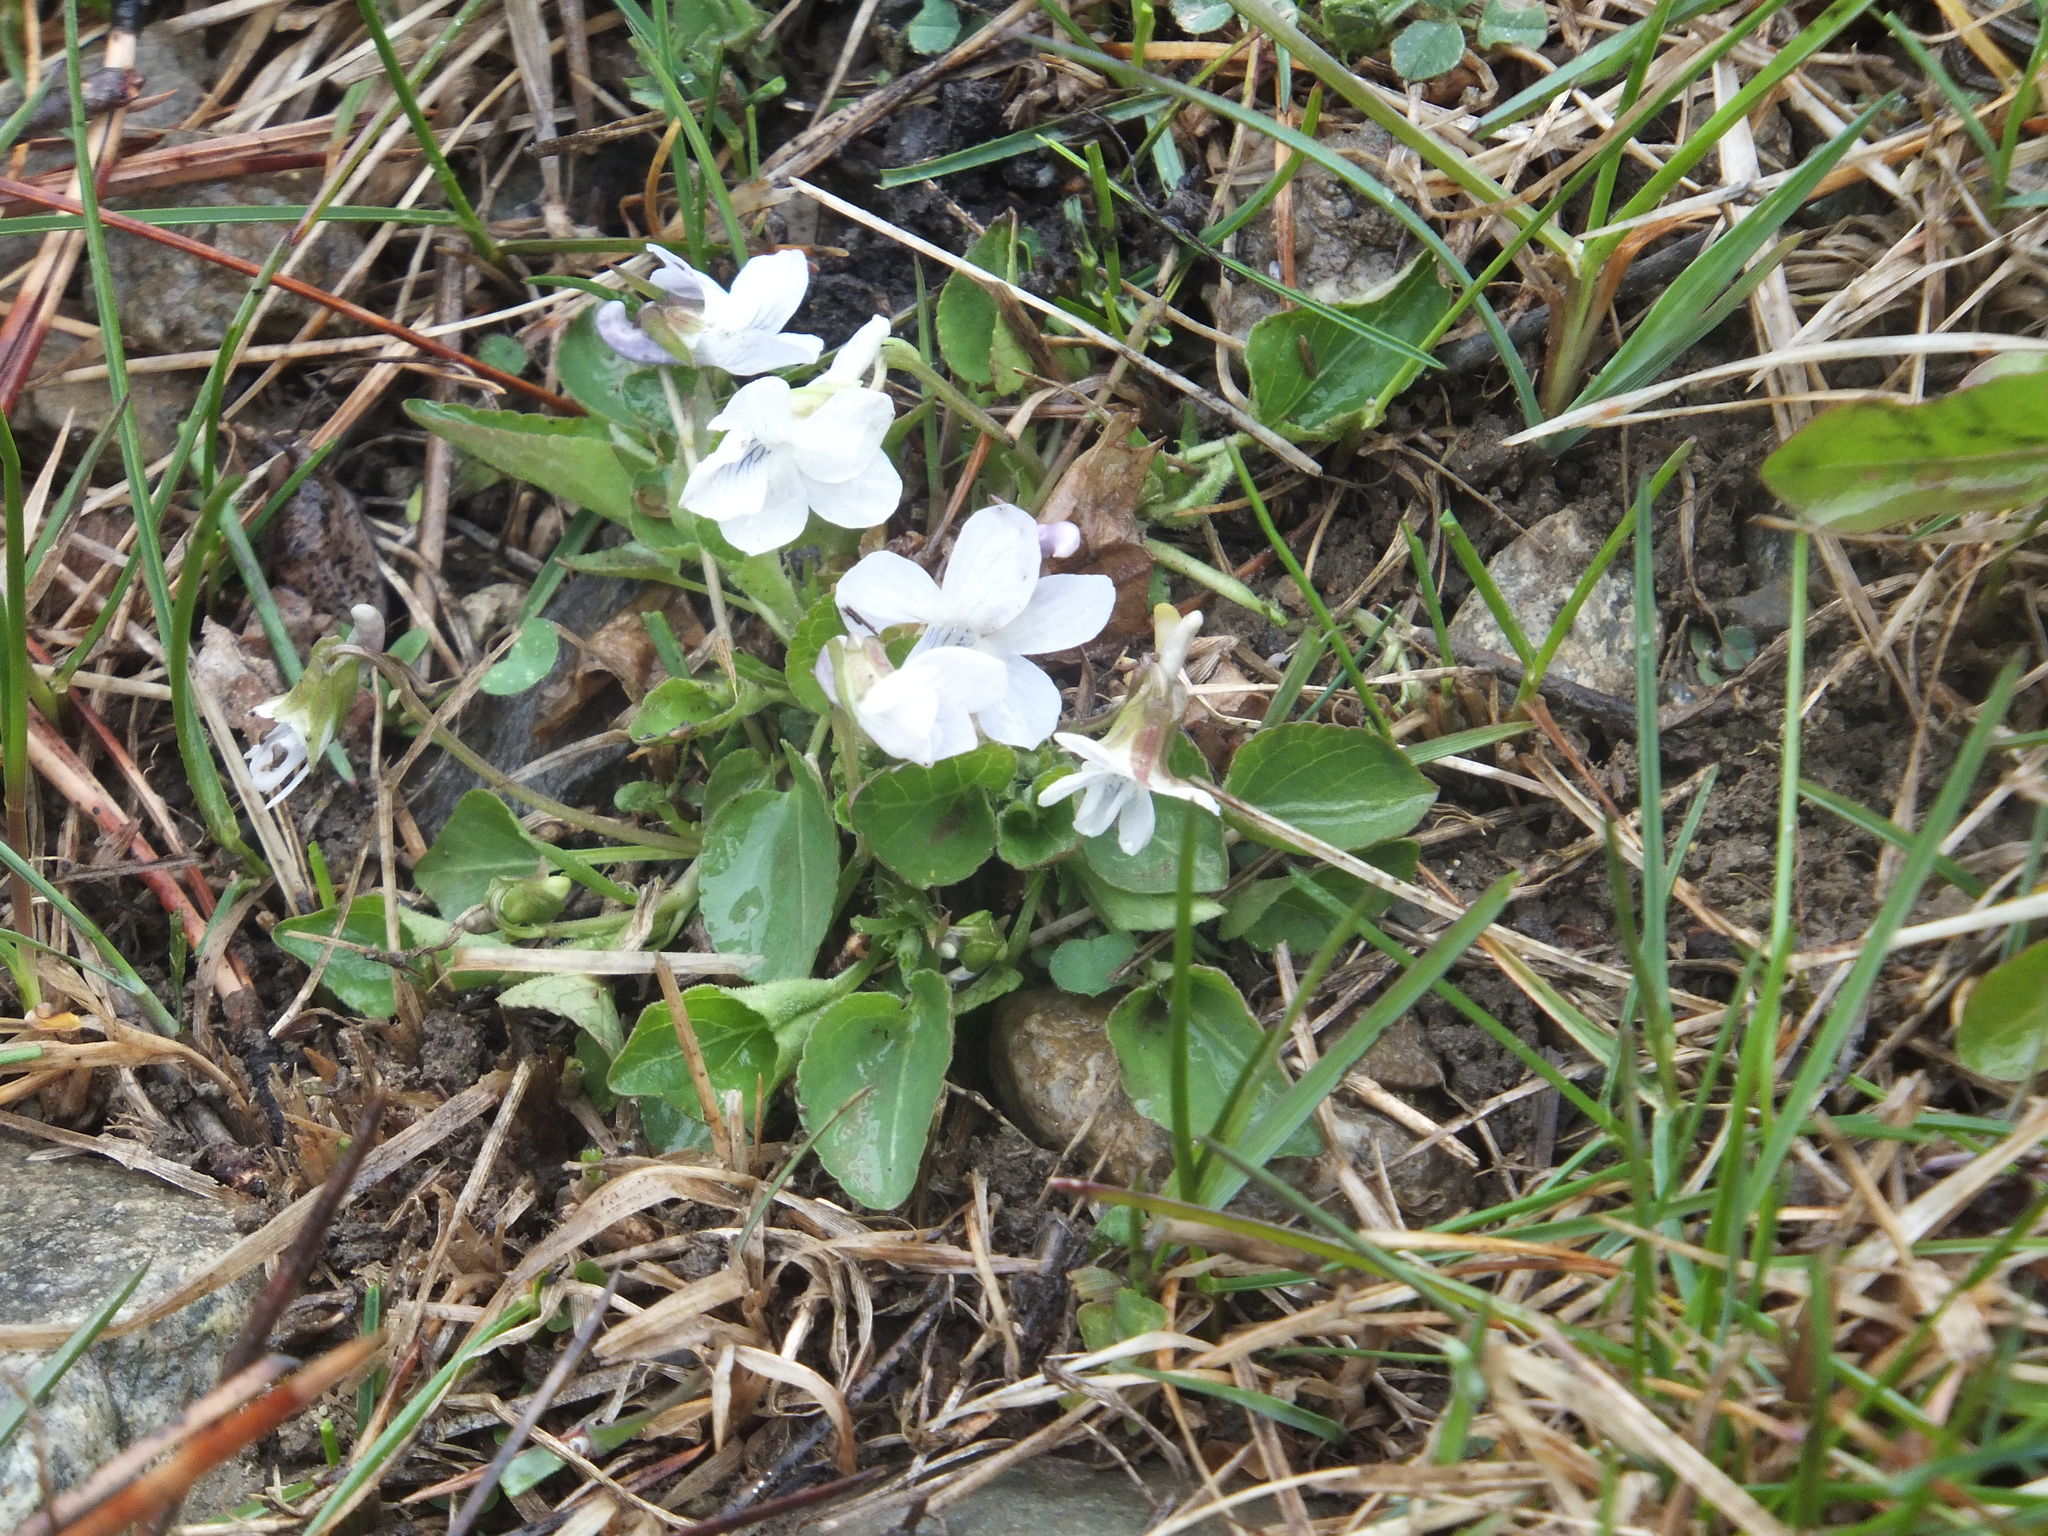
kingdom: Plantae
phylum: Tracheophyta
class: Magnoliopsida
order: Malpighiales
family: Violaceae
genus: Viola
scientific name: Viola adunca
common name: Sand violet
